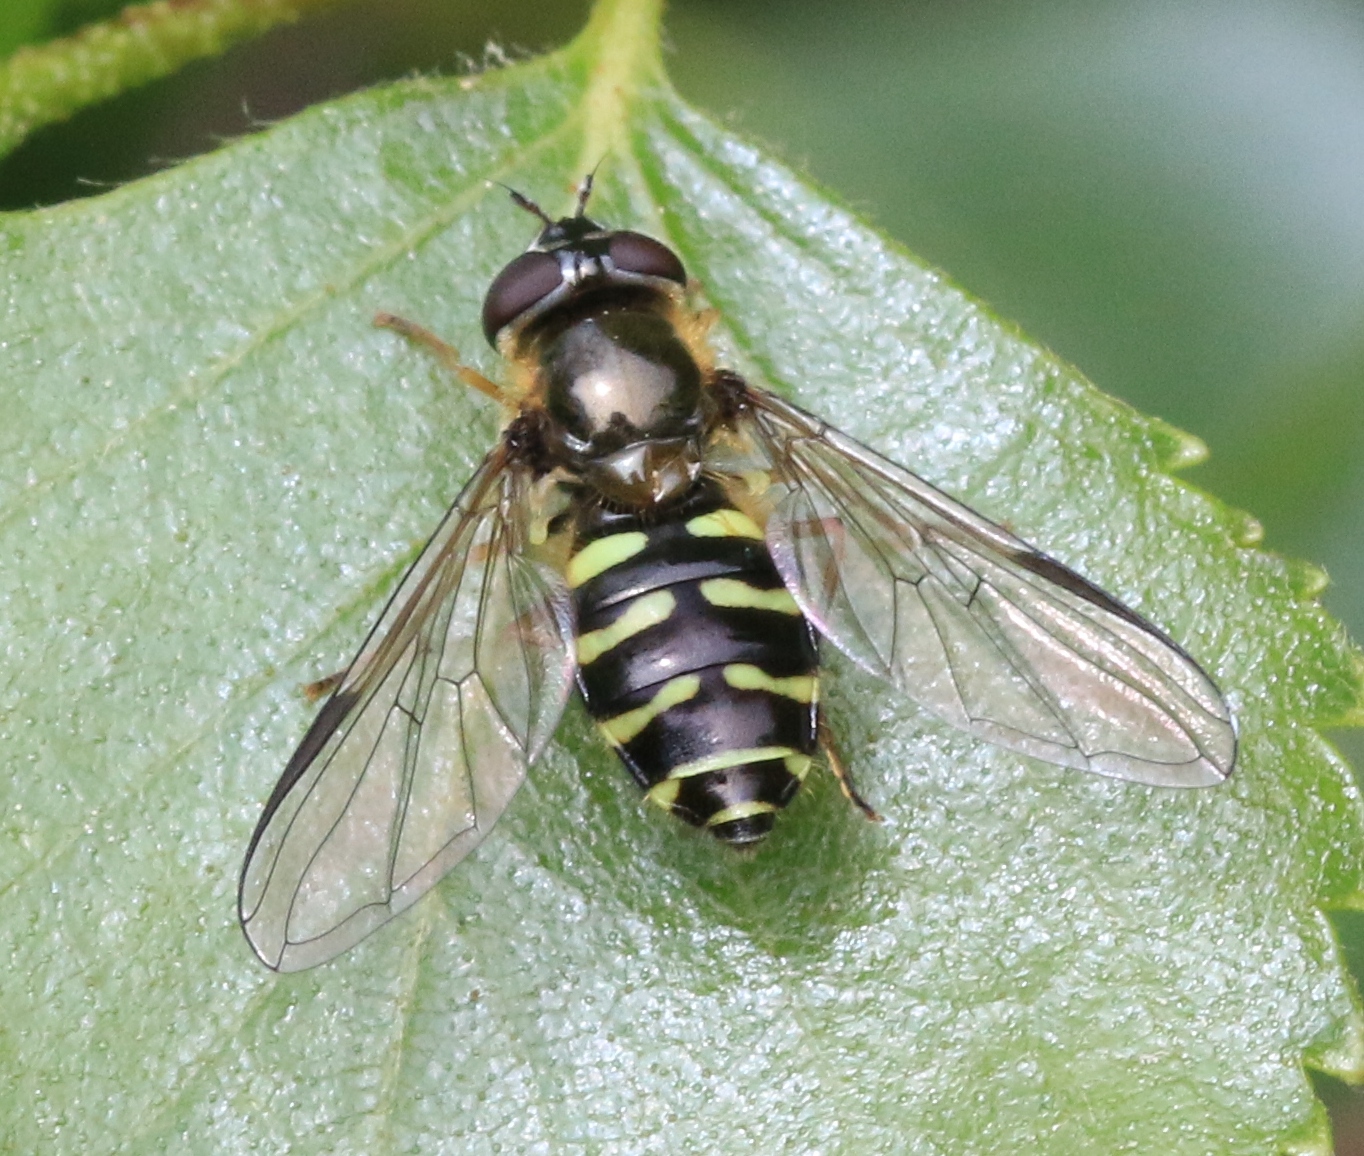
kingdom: Animalia
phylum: Arthropoda
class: Insecta
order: Diptera
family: Syrphidae
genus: Dasysyrphus
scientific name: Dasysyrphus
